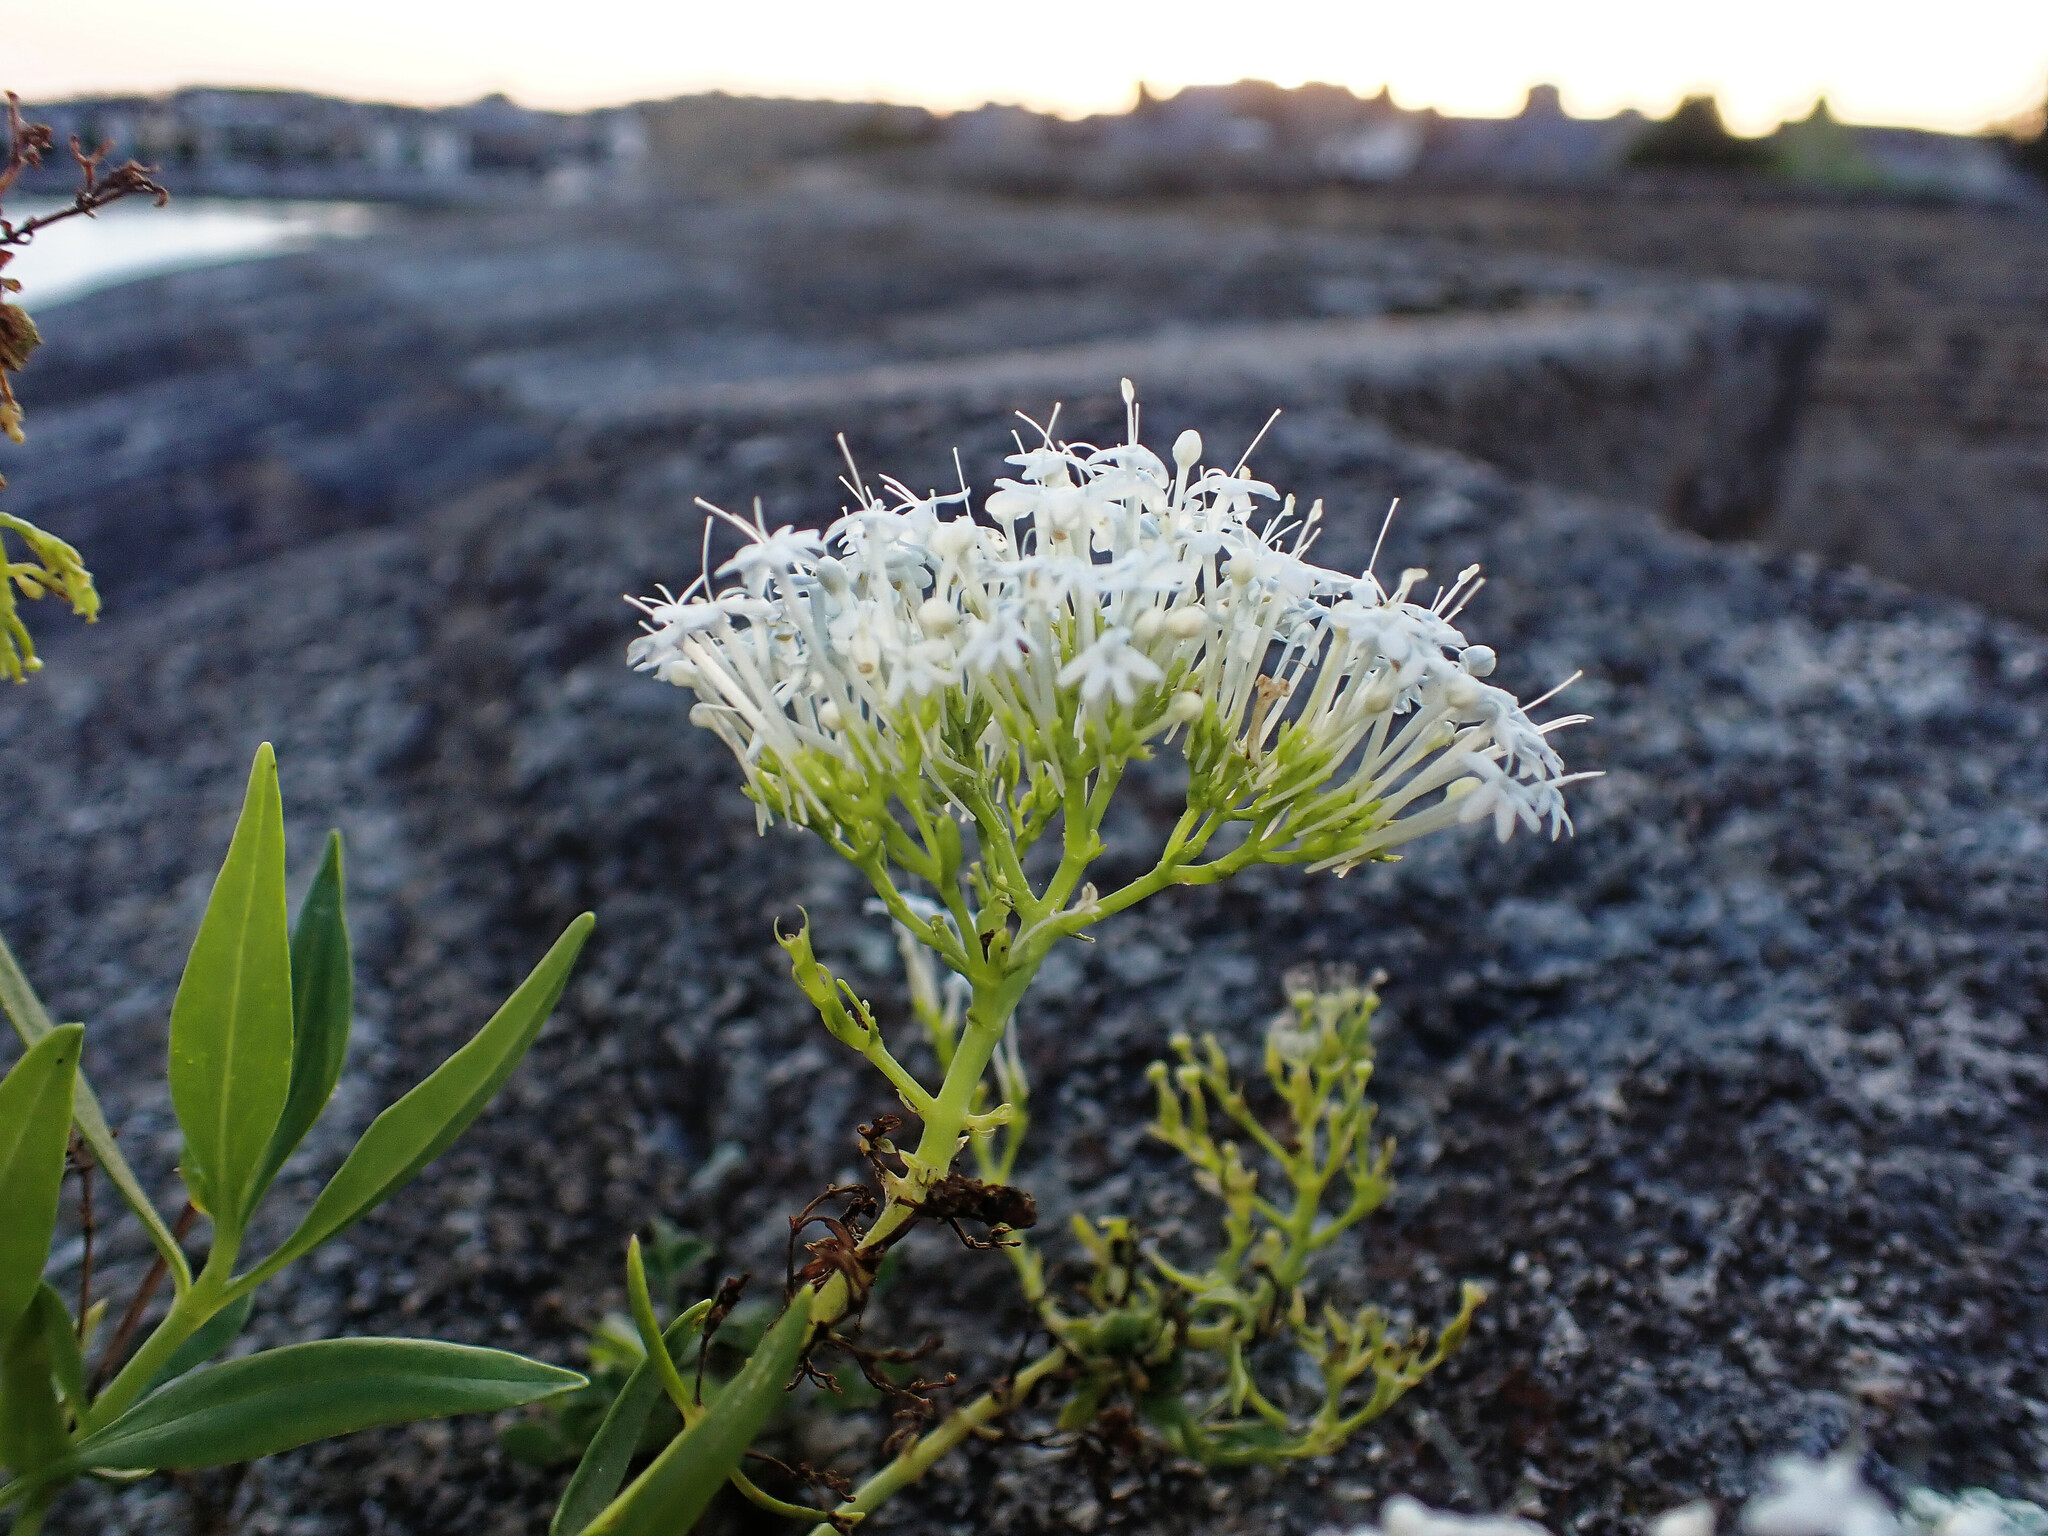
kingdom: Plantae
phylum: Tracheophyta
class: Magnoliopsida
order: Dipsacales
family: Caprifoliaceae
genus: Centranthus
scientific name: Centranthus ruber
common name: Red valerian
